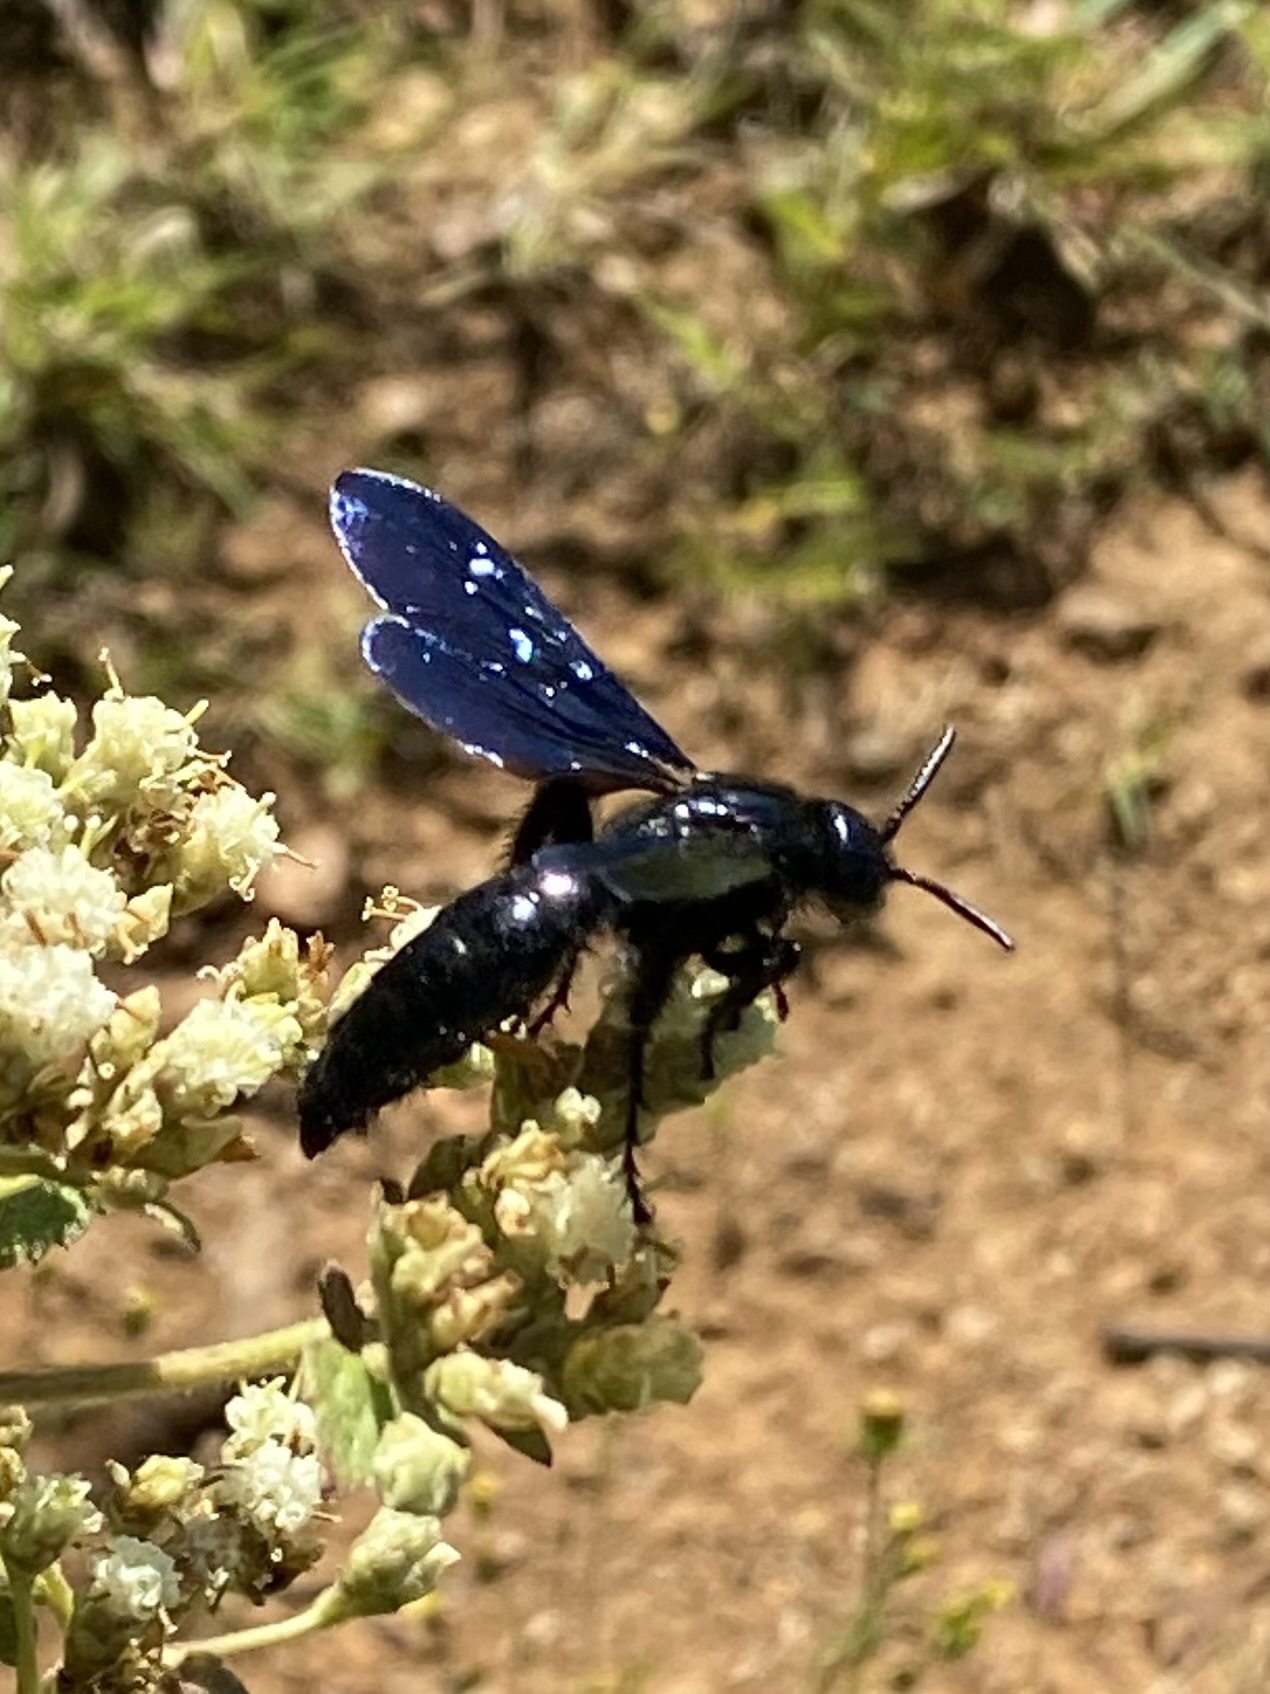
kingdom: Animalia
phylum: Arthropoda
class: Insecta
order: Hymenoptera
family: Scoliidae
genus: Scolia
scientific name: Scolia mexicana
